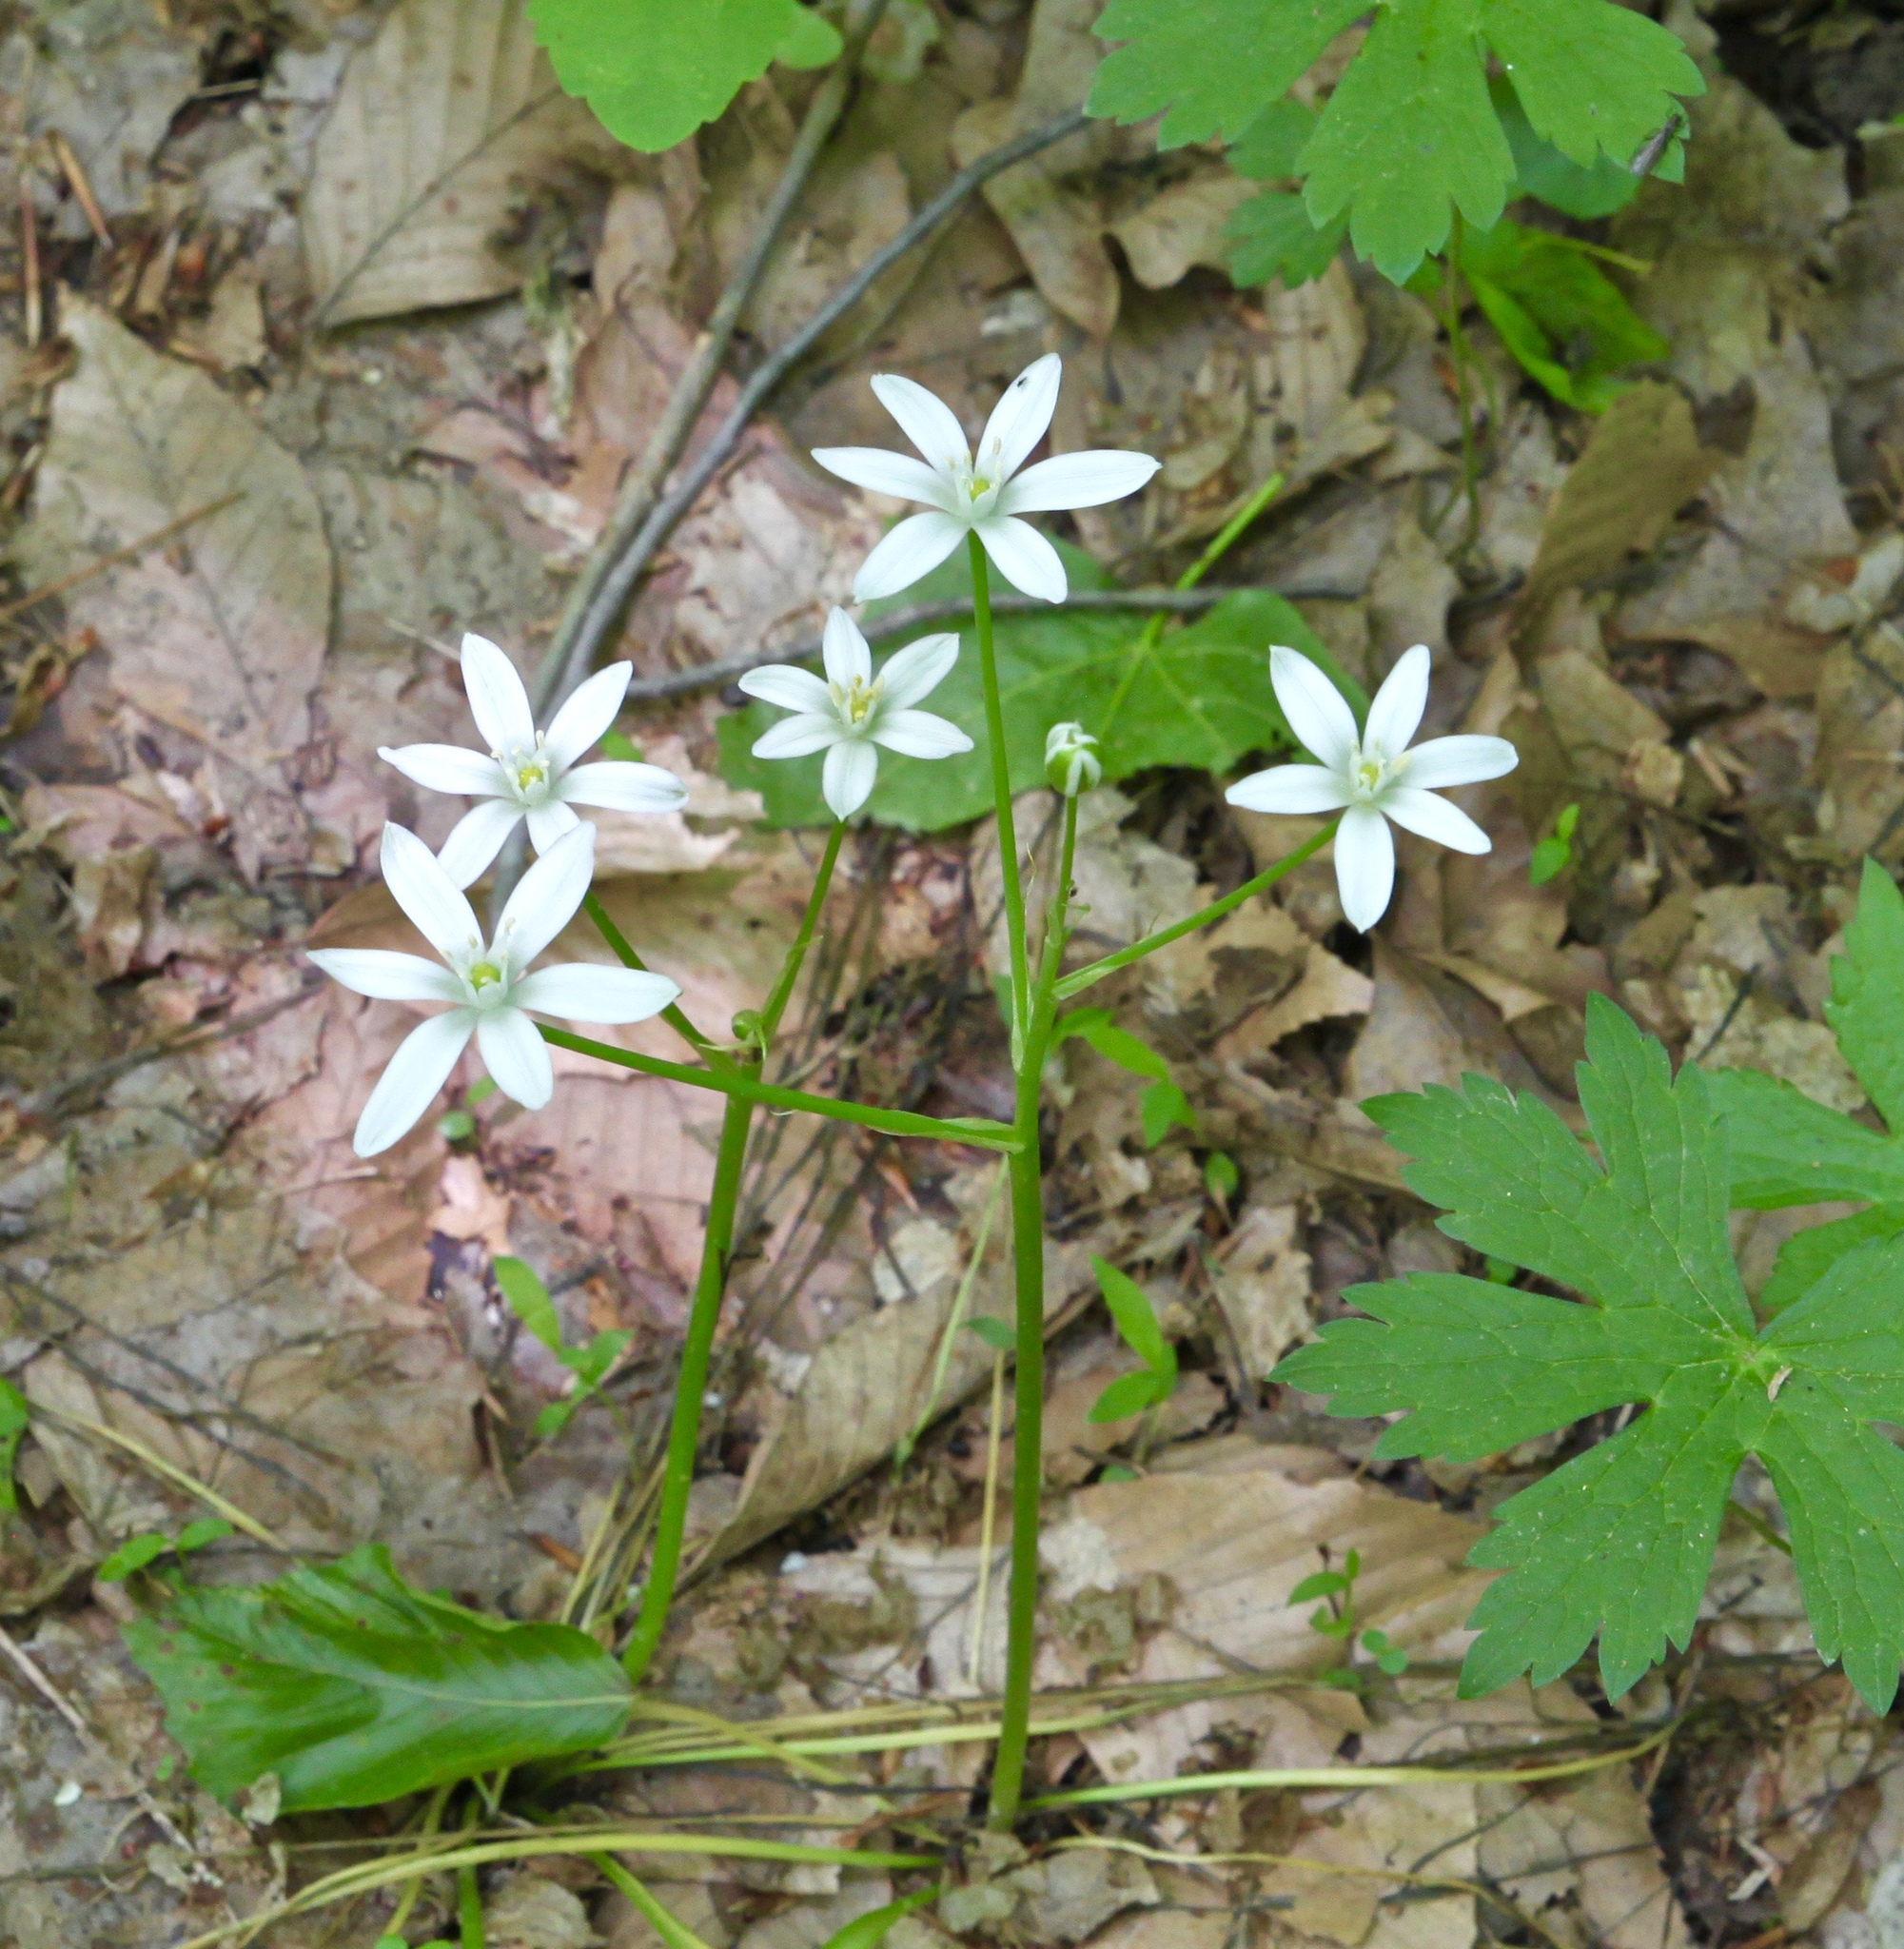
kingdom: Plantae
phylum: Tracheophyta
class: Liliopsida
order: Asparagales
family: Asparagaceae
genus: Ornithogalum
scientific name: Ornithogalum umbellatum
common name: Garden star-of-bethlehem
